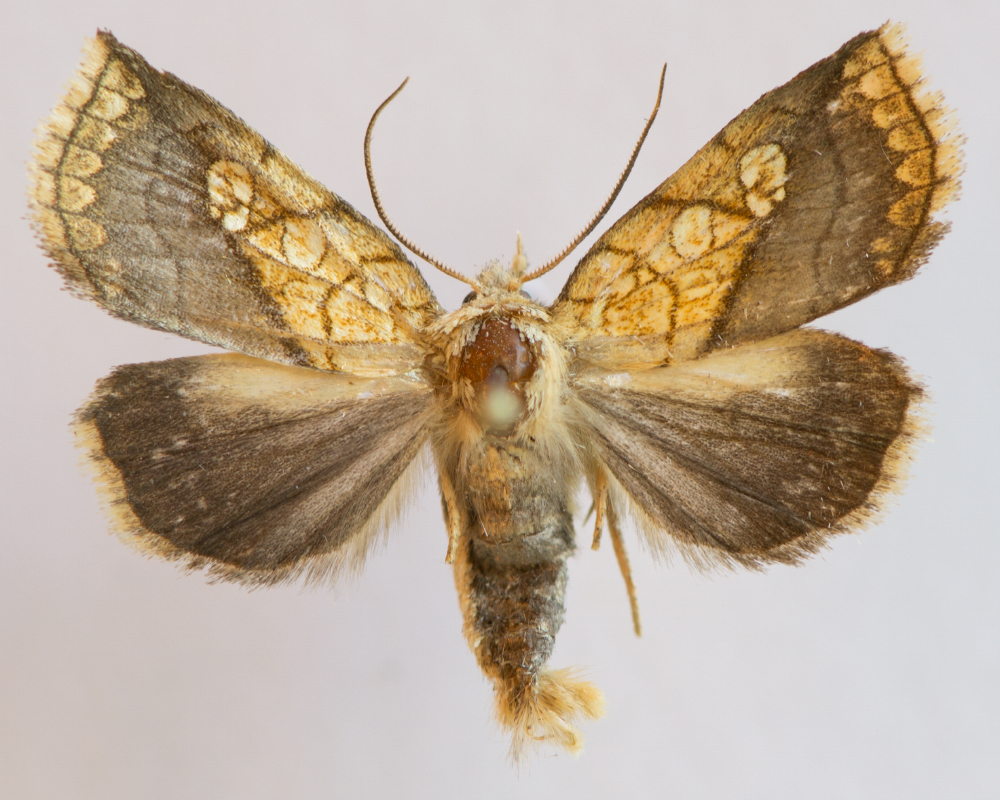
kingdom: Animalia
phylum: Arthropoda
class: Insecta
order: Lepidoptera
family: Noctuidae
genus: Brachyxanthia
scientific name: Brachyxanthia zelotypa
